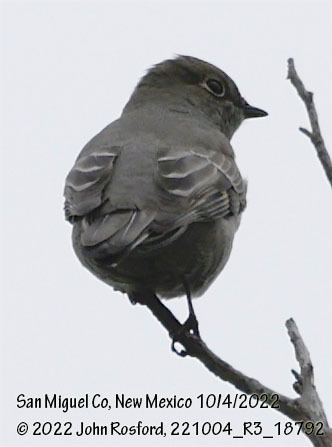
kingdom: Animalia
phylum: Chordata
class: Aves
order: Passeriformes
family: Turdidae
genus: Myadestes
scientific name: Myadestes townsendi
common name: Townsend's solitaire
